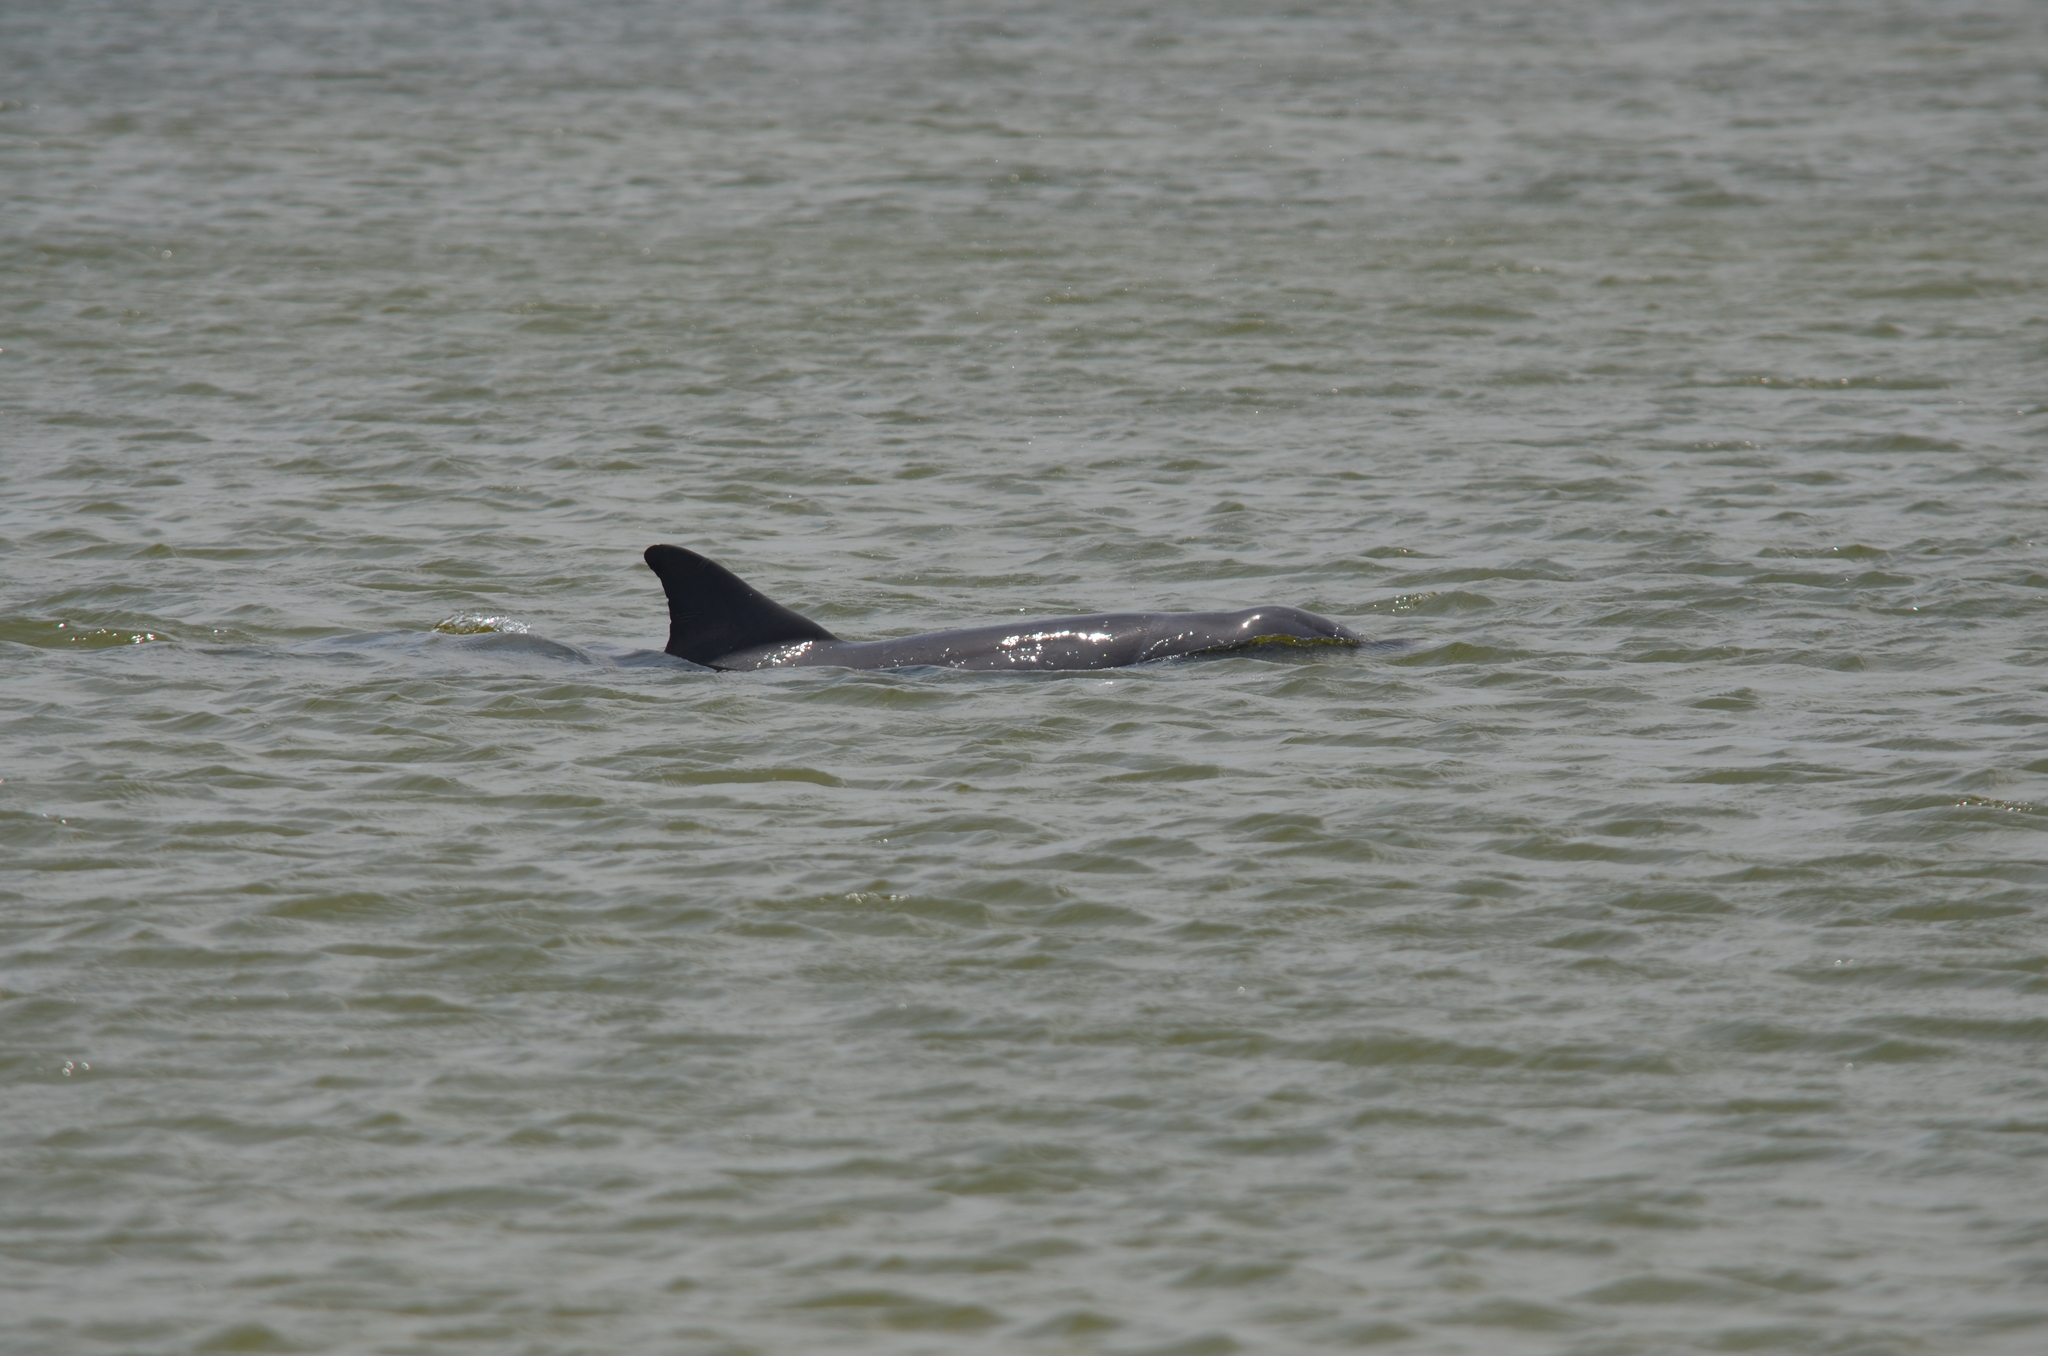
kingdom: Animalia
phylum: Chordata
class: Mammalia
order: Cetacea
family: Delphinidae
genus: Tursiops
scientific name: Tursiops truncatus
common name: Bottlenose dolphin
